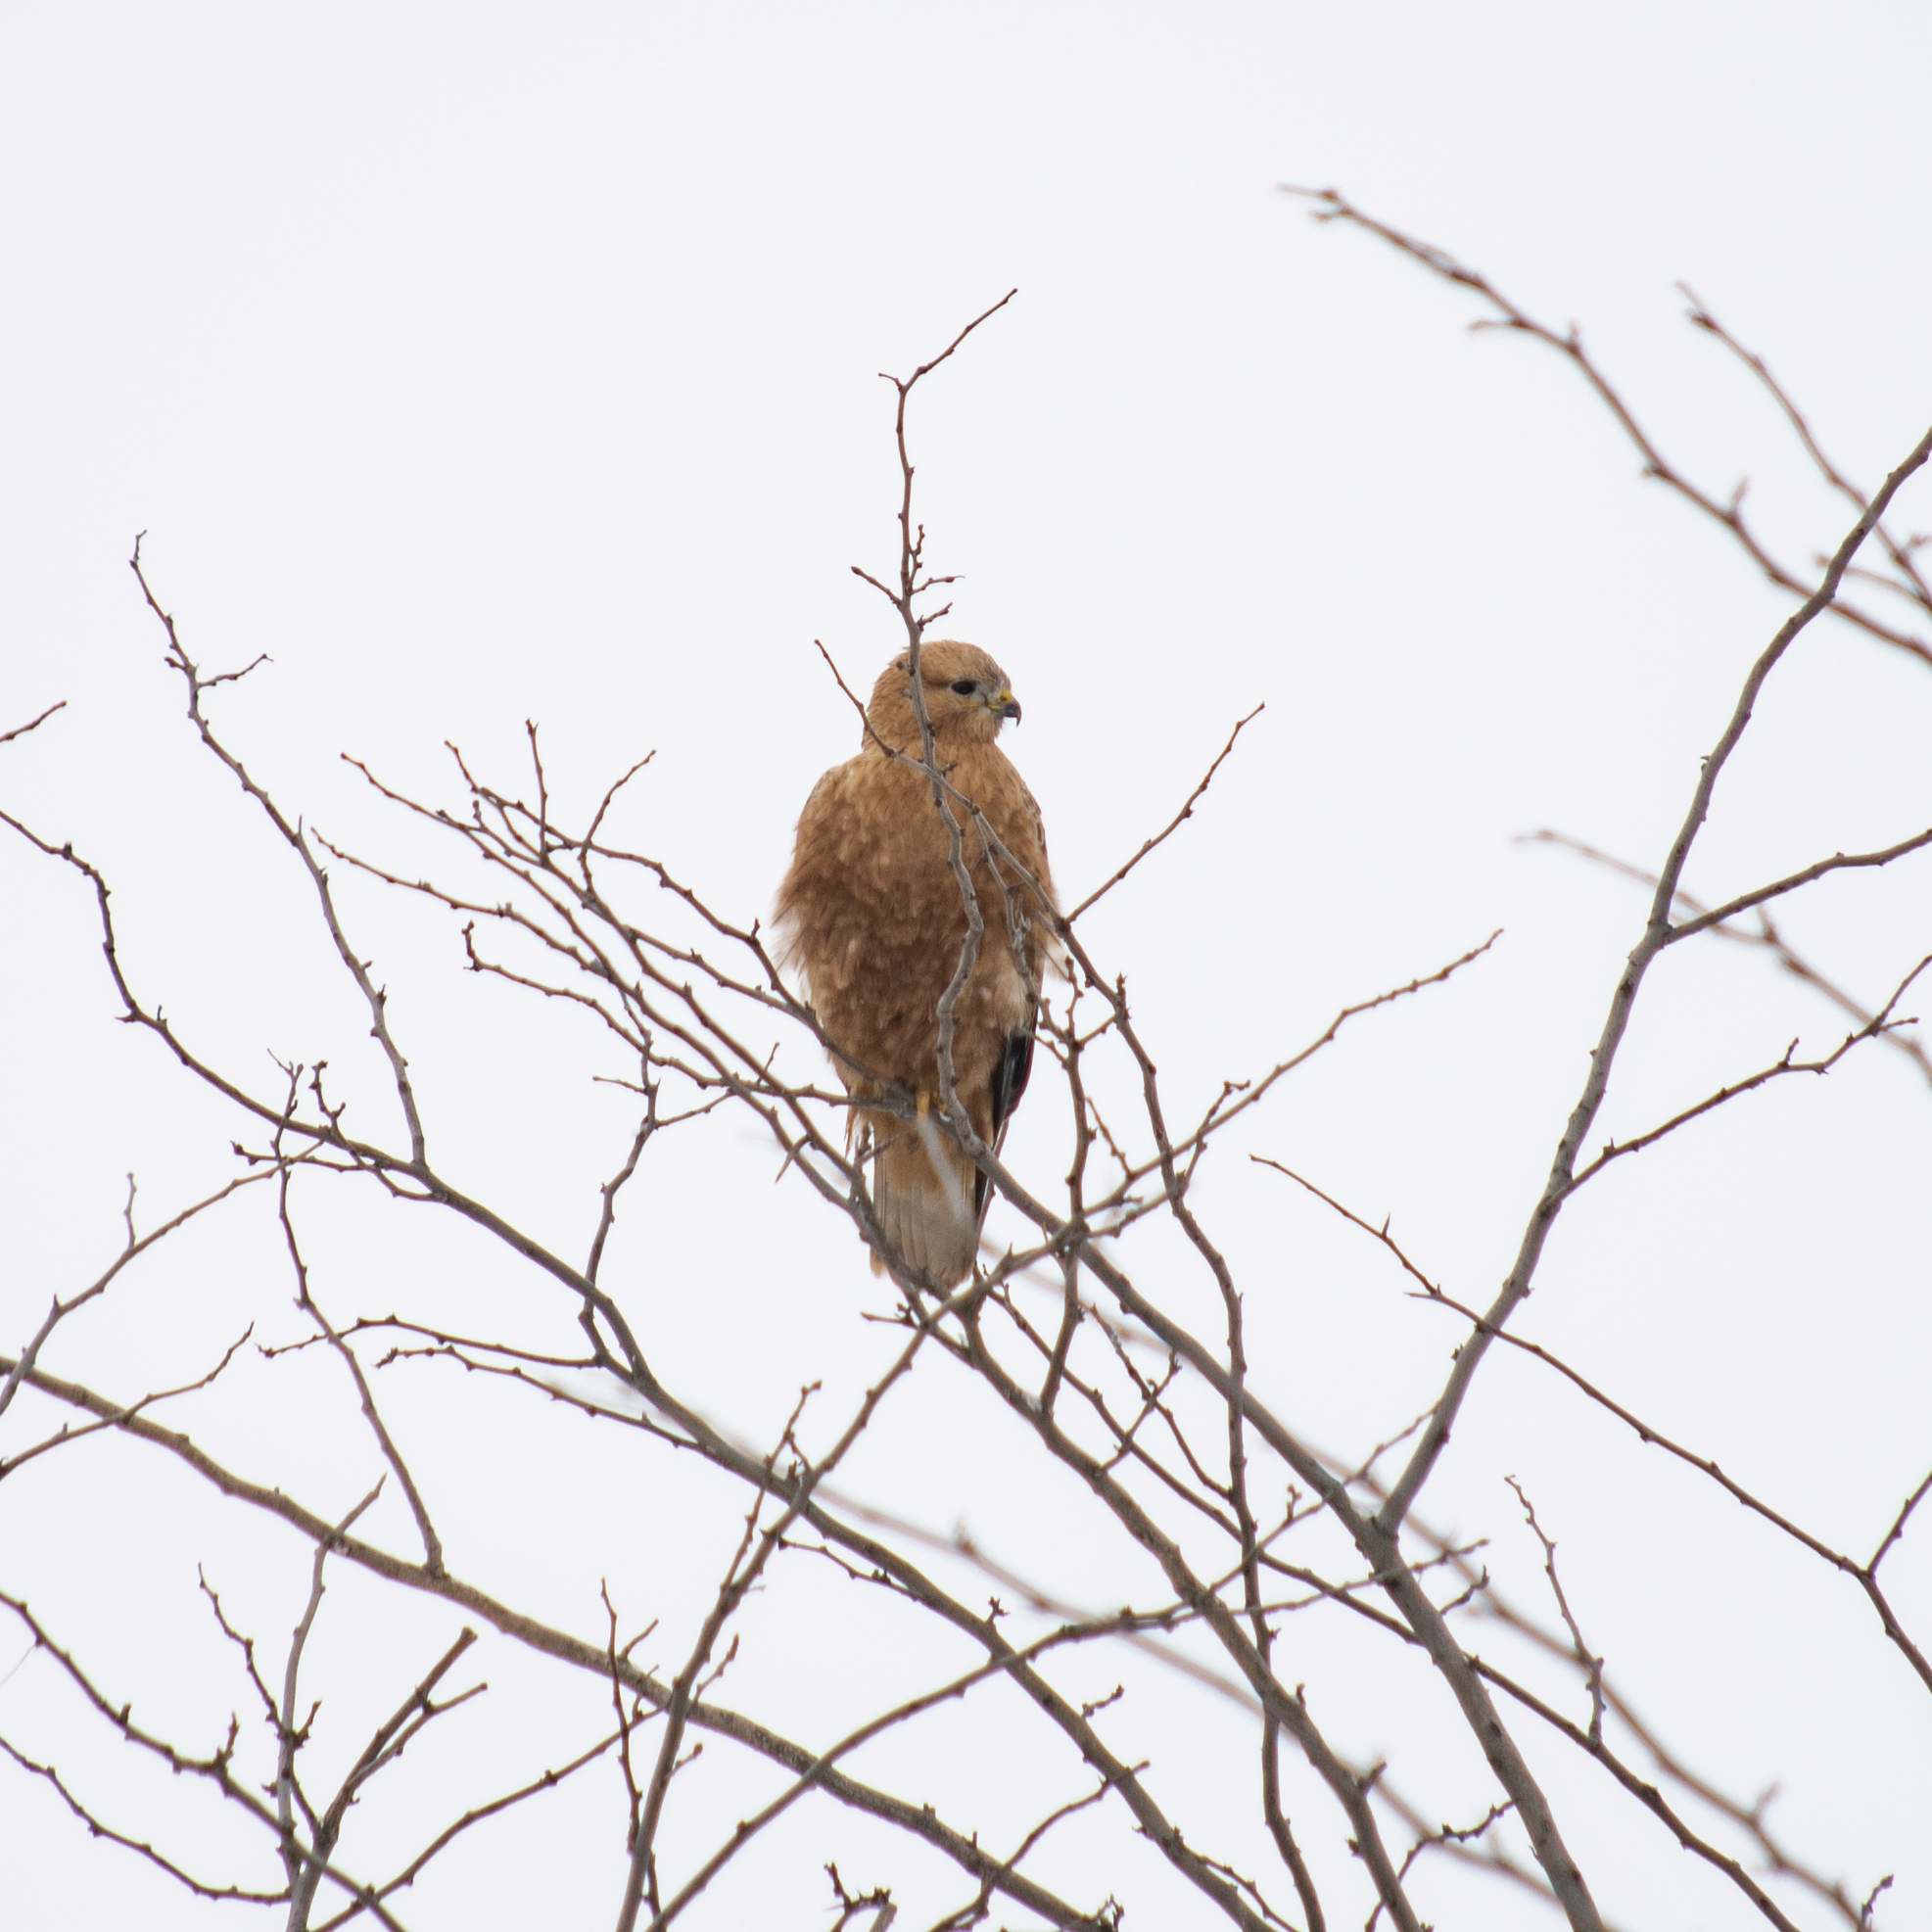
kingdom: Animalia
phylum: Chordata
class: Aves
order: Accipitriformes
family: Accipitridae
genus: Buteo
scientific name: Buteo buteo
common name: Common buzzard
